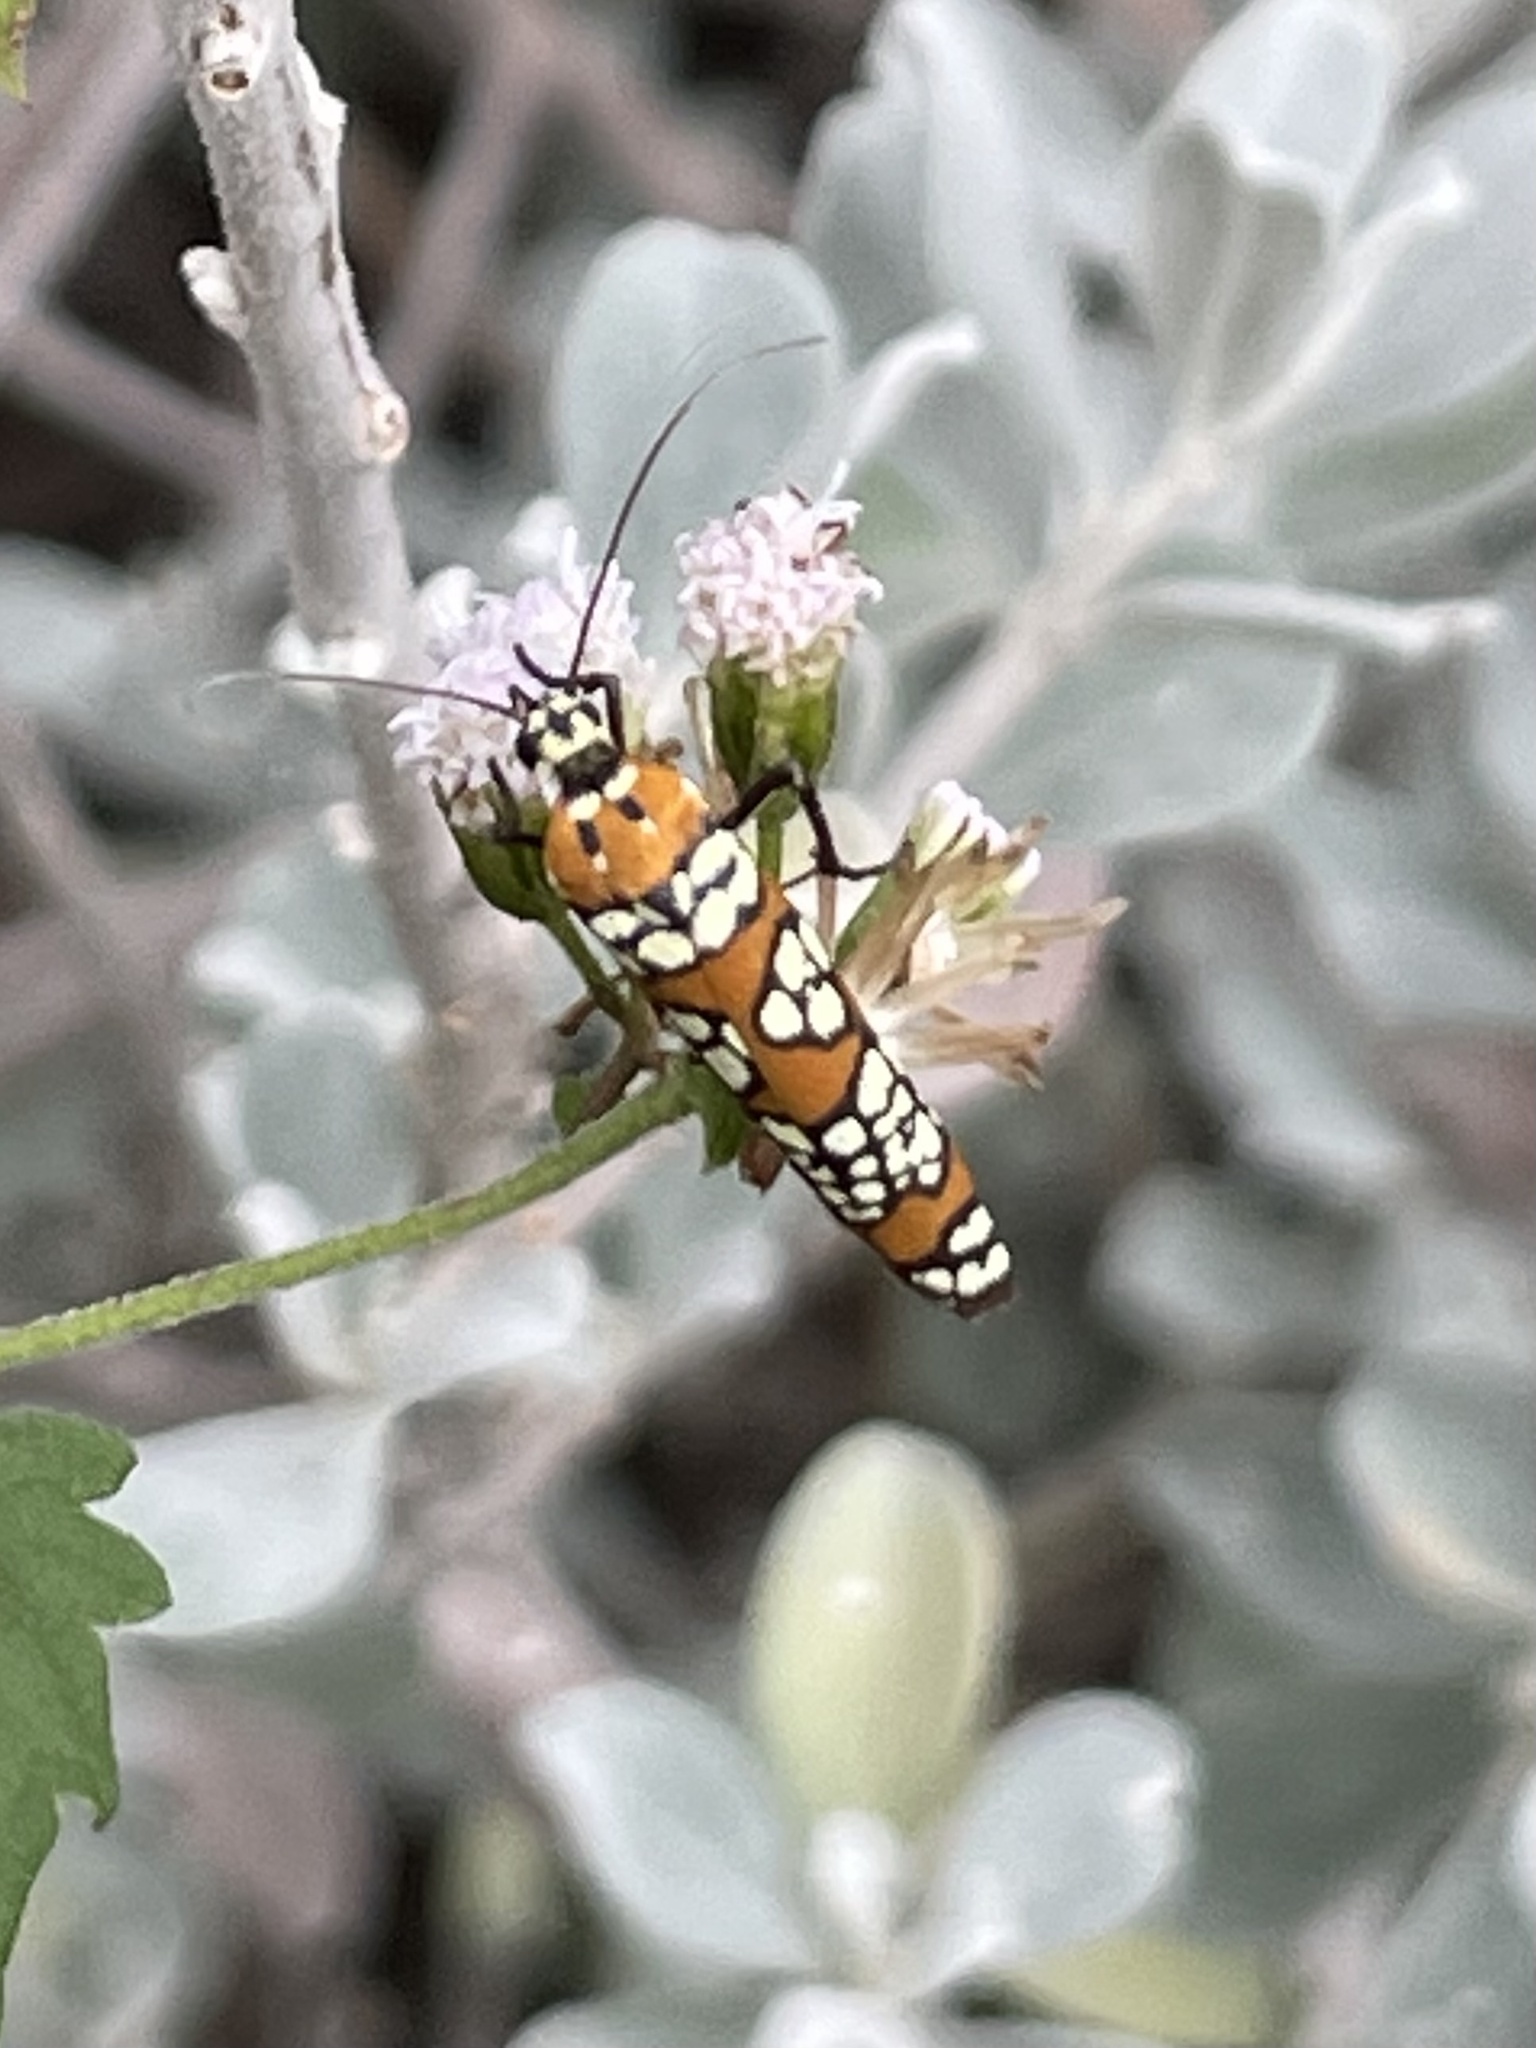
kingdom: Animalia
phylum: Arthropoda
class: Insecta
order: Lepidoptera
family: Attevidae
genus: Atteva
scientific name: Atteva punctella
